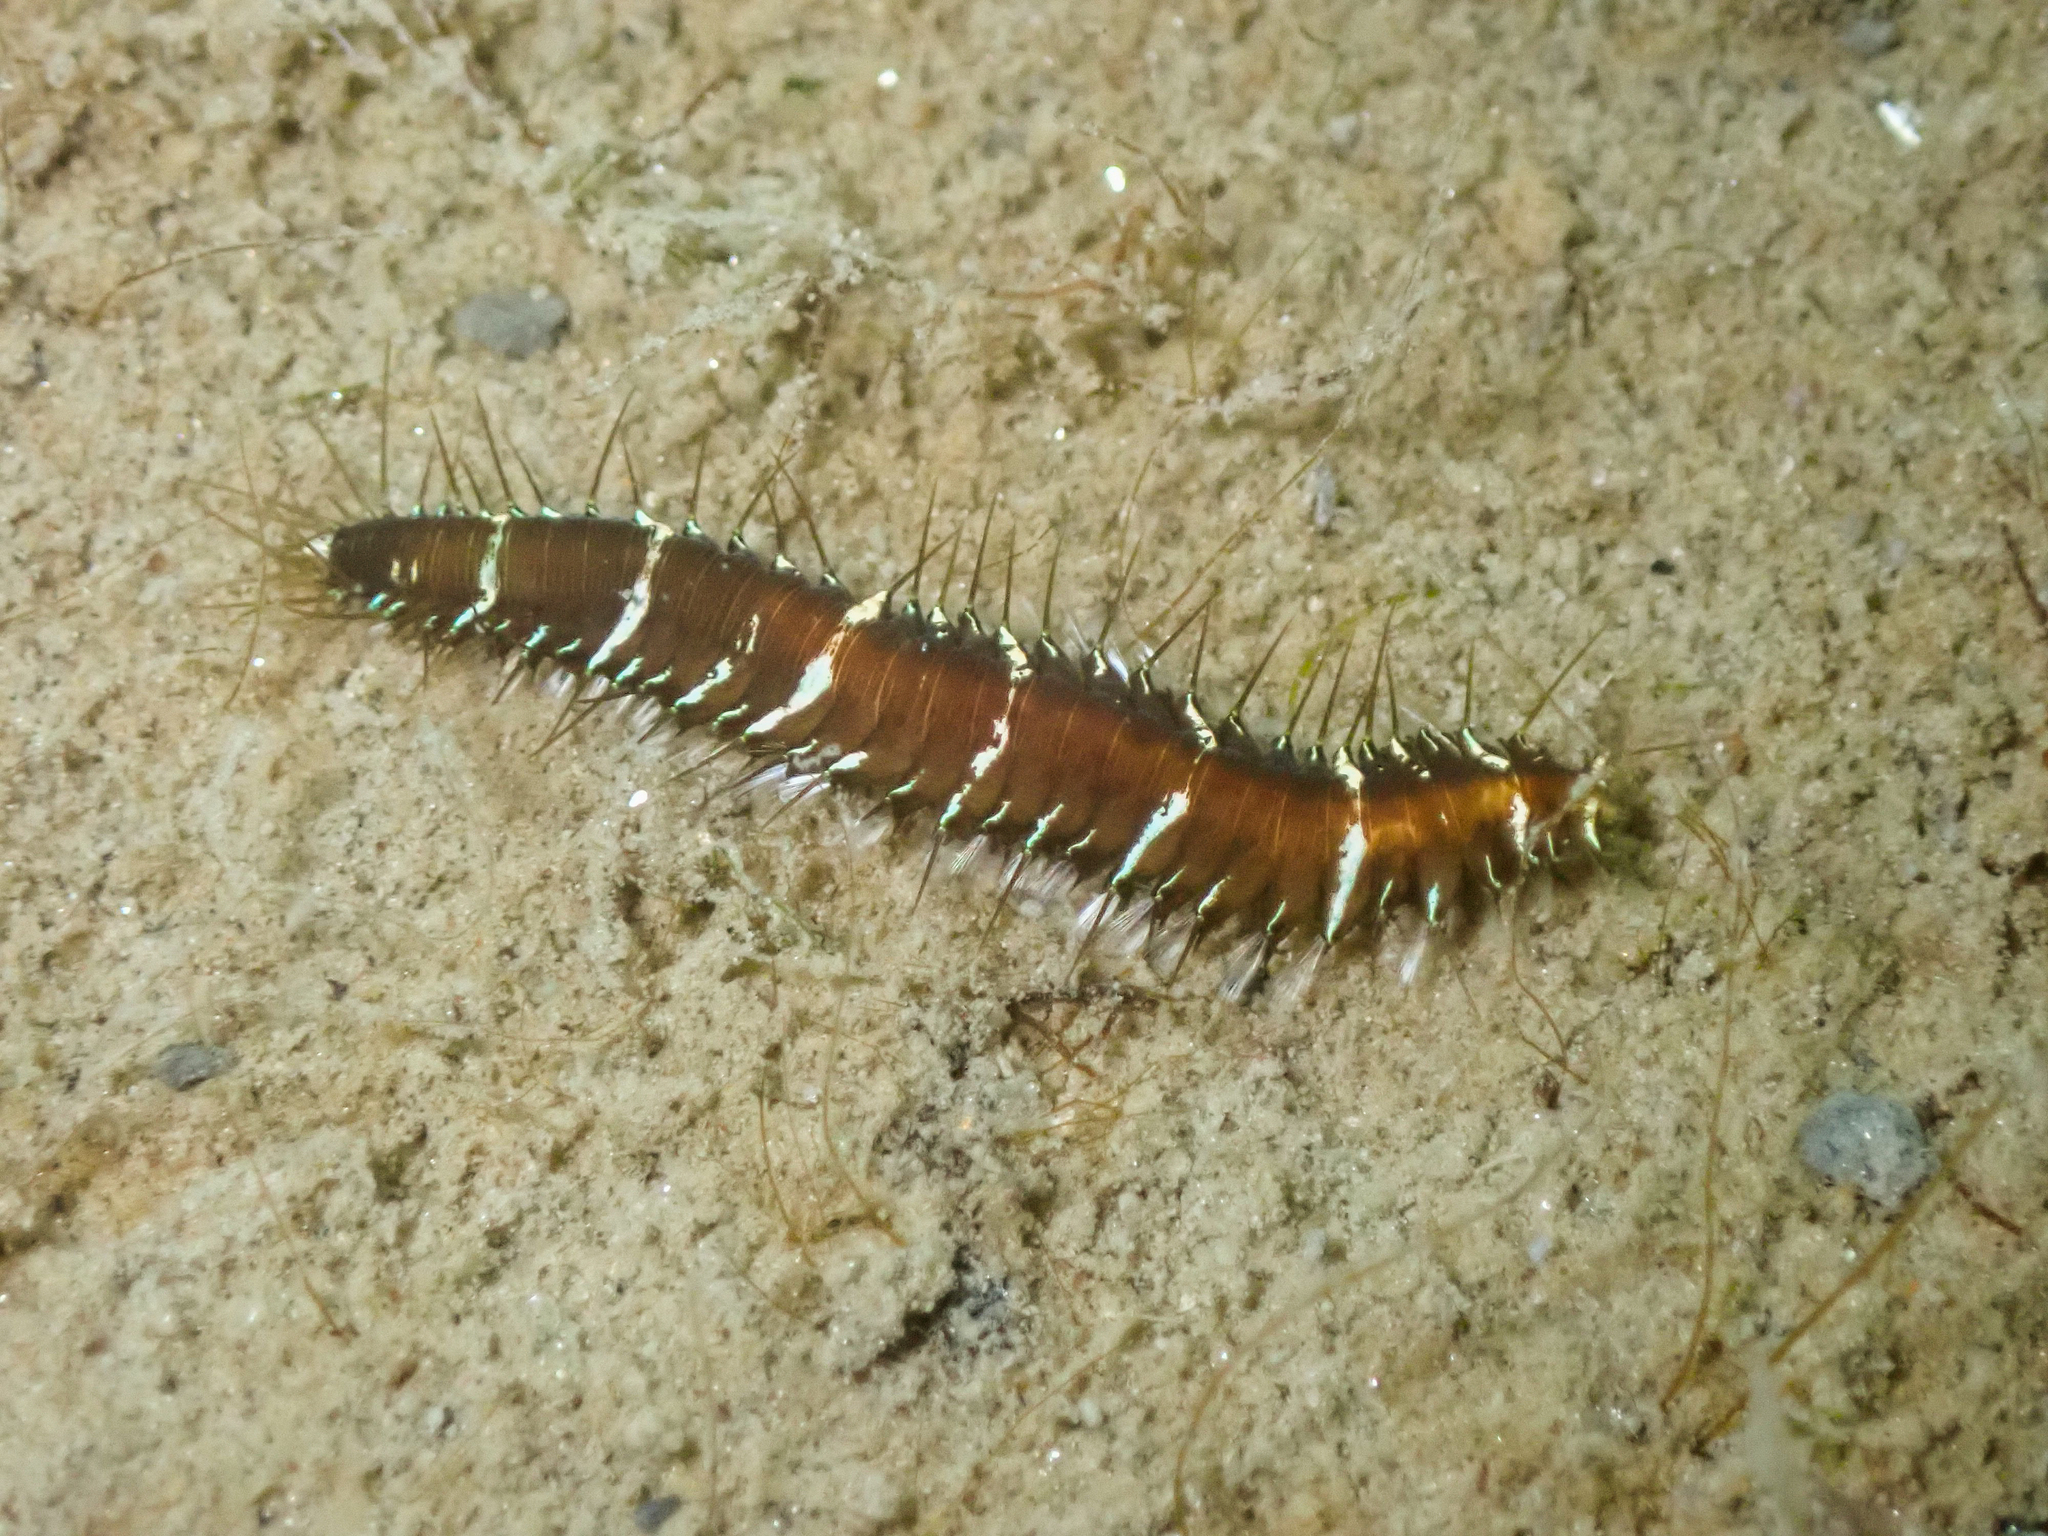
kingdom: Animalia
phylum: Annelida
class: Polychaeta
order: Phyllodocida
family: Hesionidae
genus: Oxydromus
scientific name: Oxydromus flexuosus
